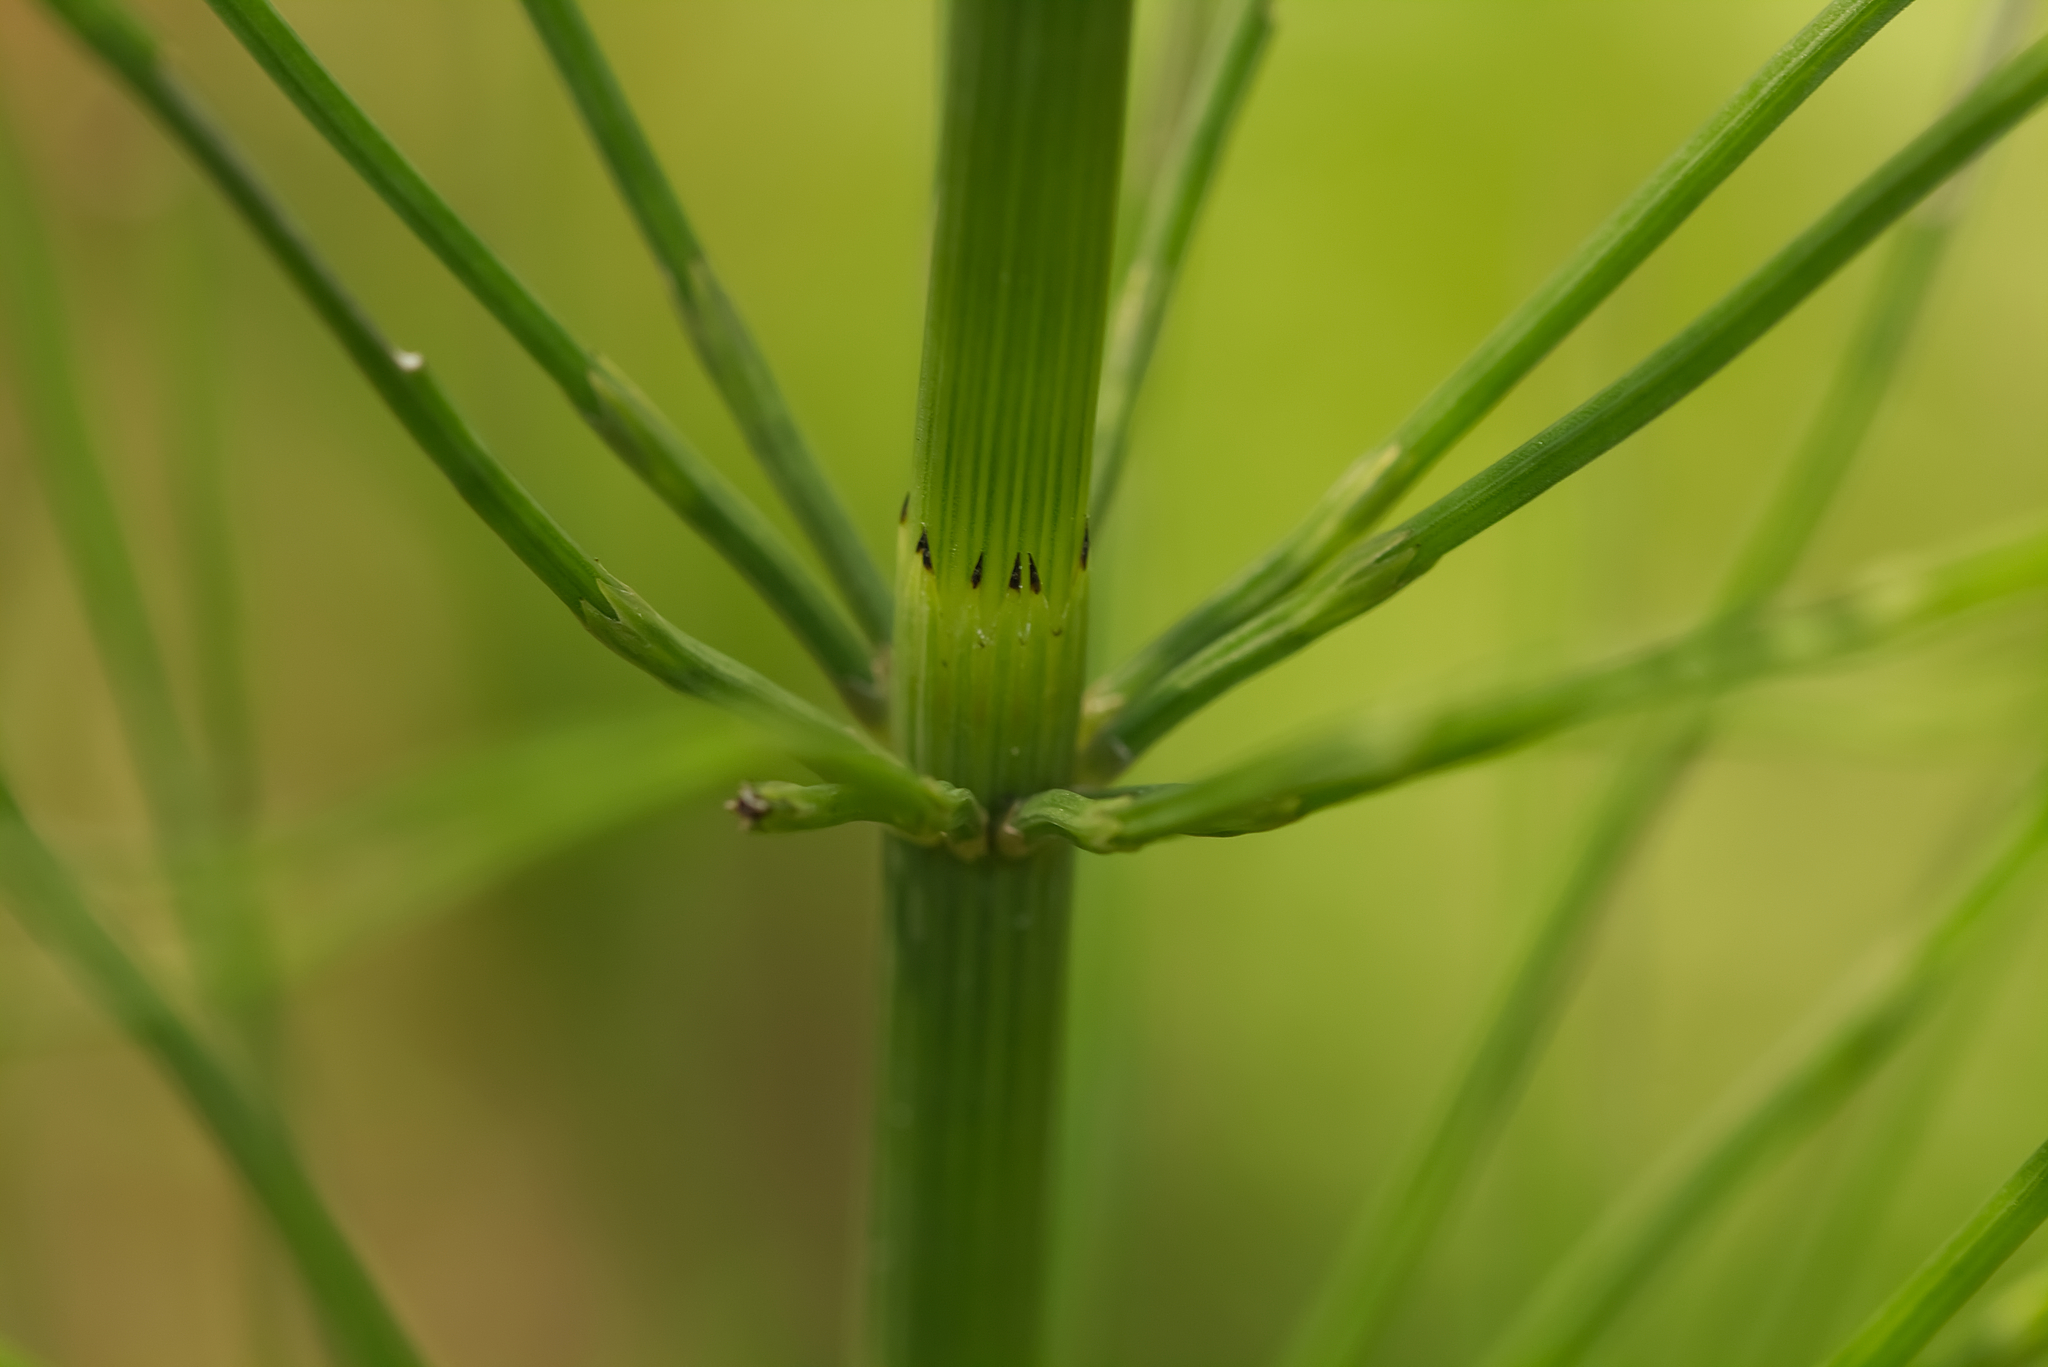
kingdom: Plantae
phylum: Tracheophyta
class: Polypodiopsida
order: Equisetales
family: Equisetaceae
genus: Equisetum
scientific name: Equisetum fluviatile
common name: Water horsetail
